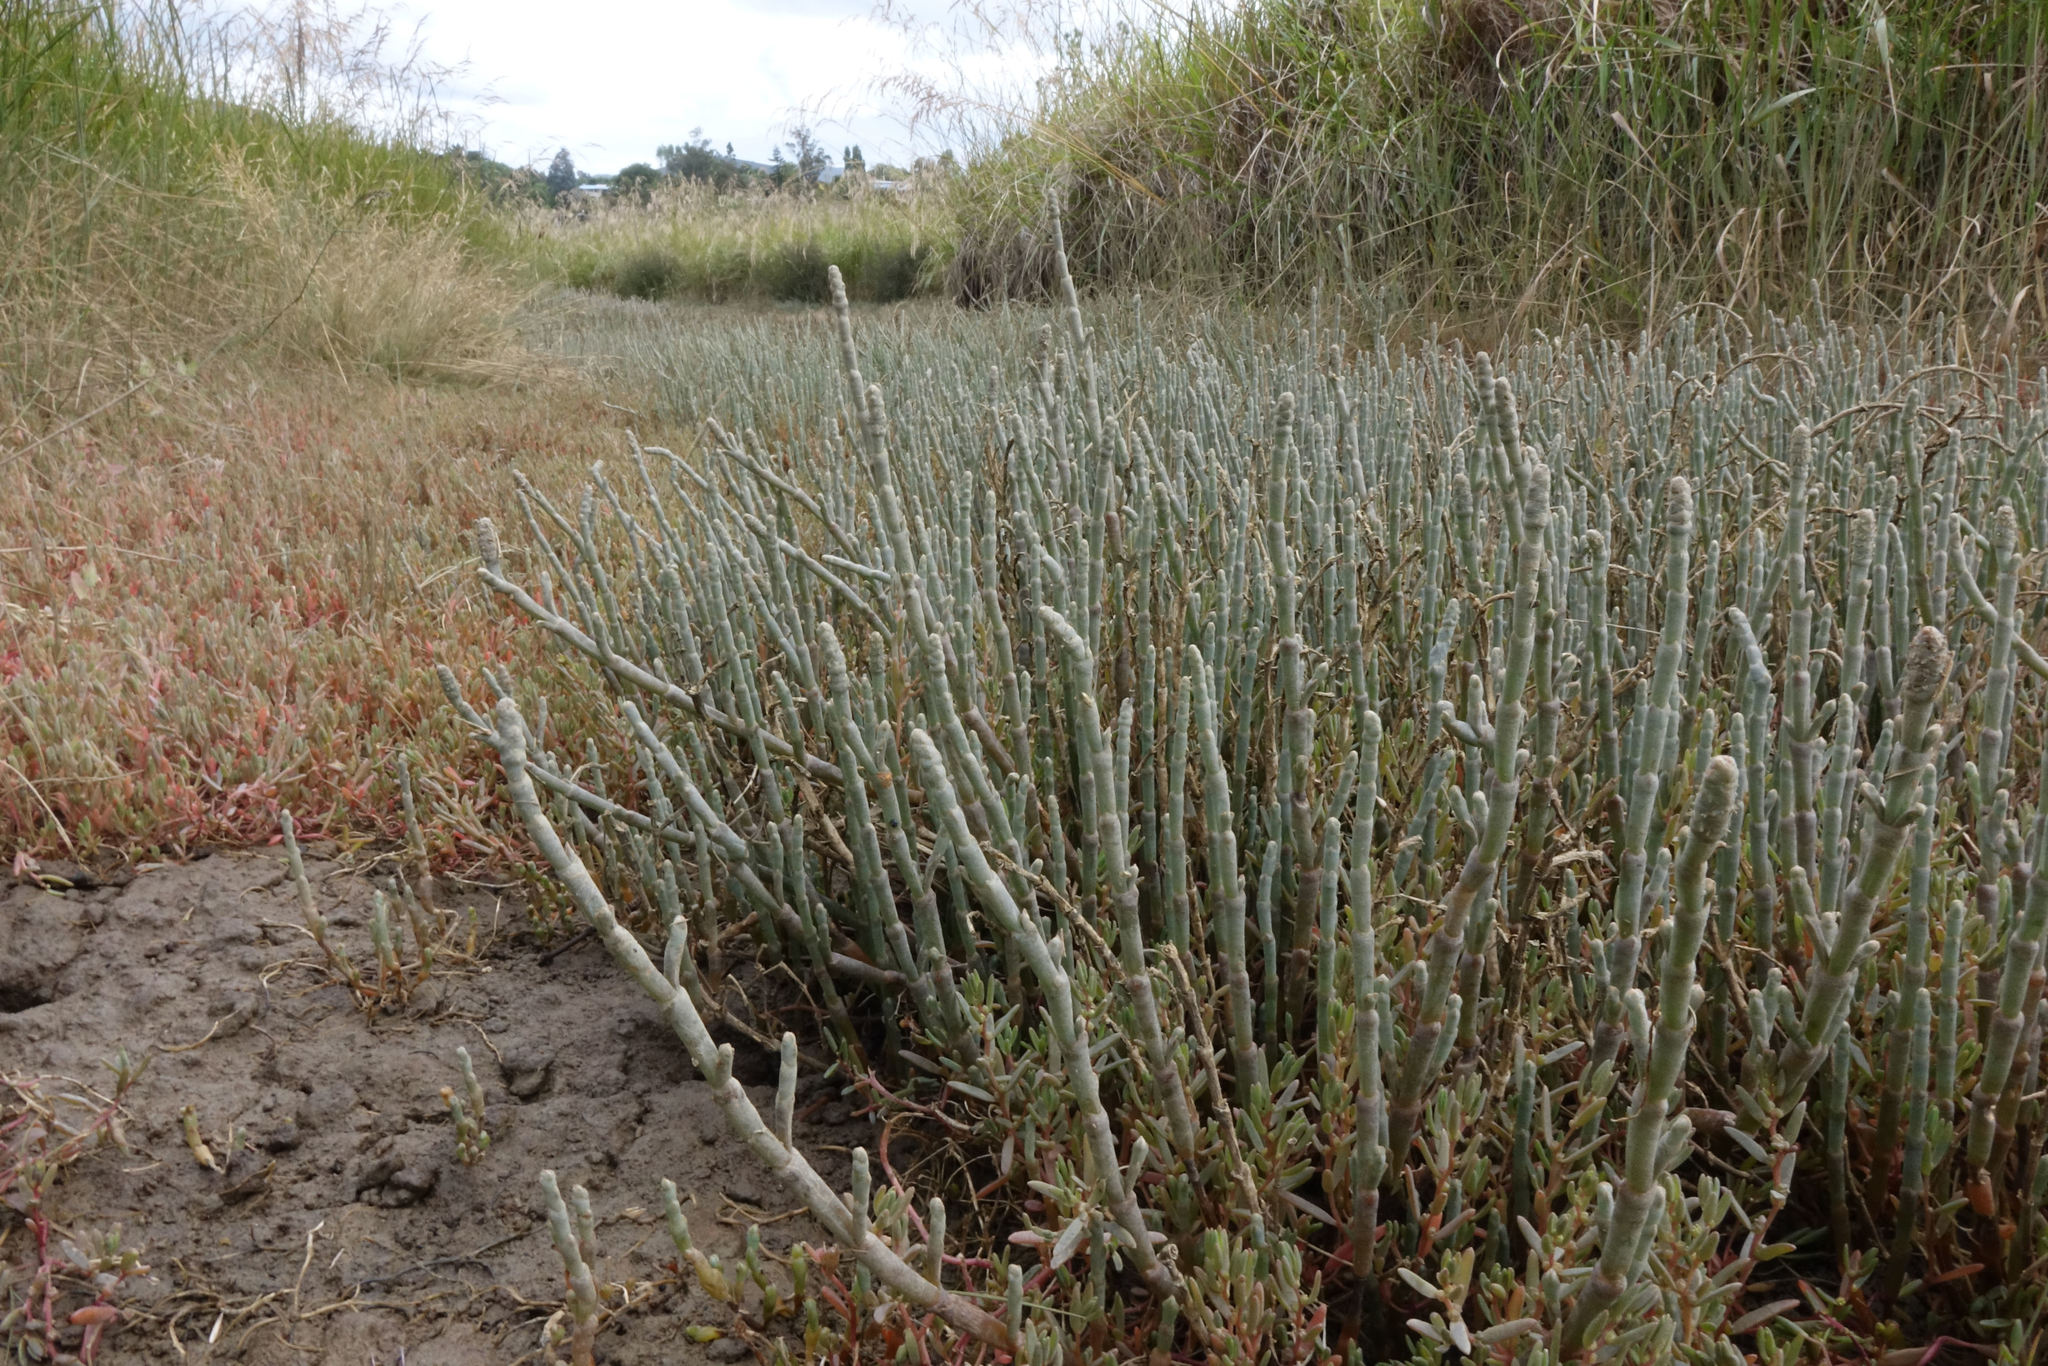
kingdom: Plantae
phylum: Tracheophyta
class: Magnoliopsida
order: Caryophyllales
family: Amaranthaceae
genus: Salicornia
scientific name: Salicornia quinqueflora
